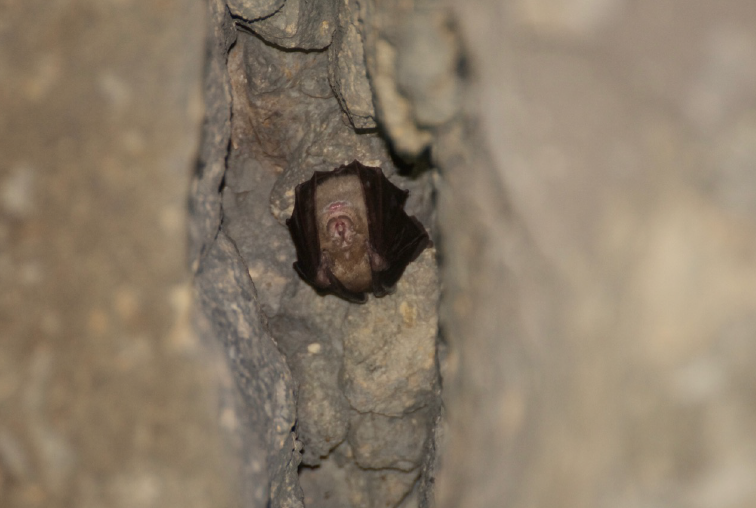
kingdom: Animalia
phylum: Chordata
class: Mammalia
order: Chiroptera
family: Rhinolophidae
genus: Rhinolophus
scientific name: Rhinolophus ferrumequinum
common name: Greater horseshoe bat
